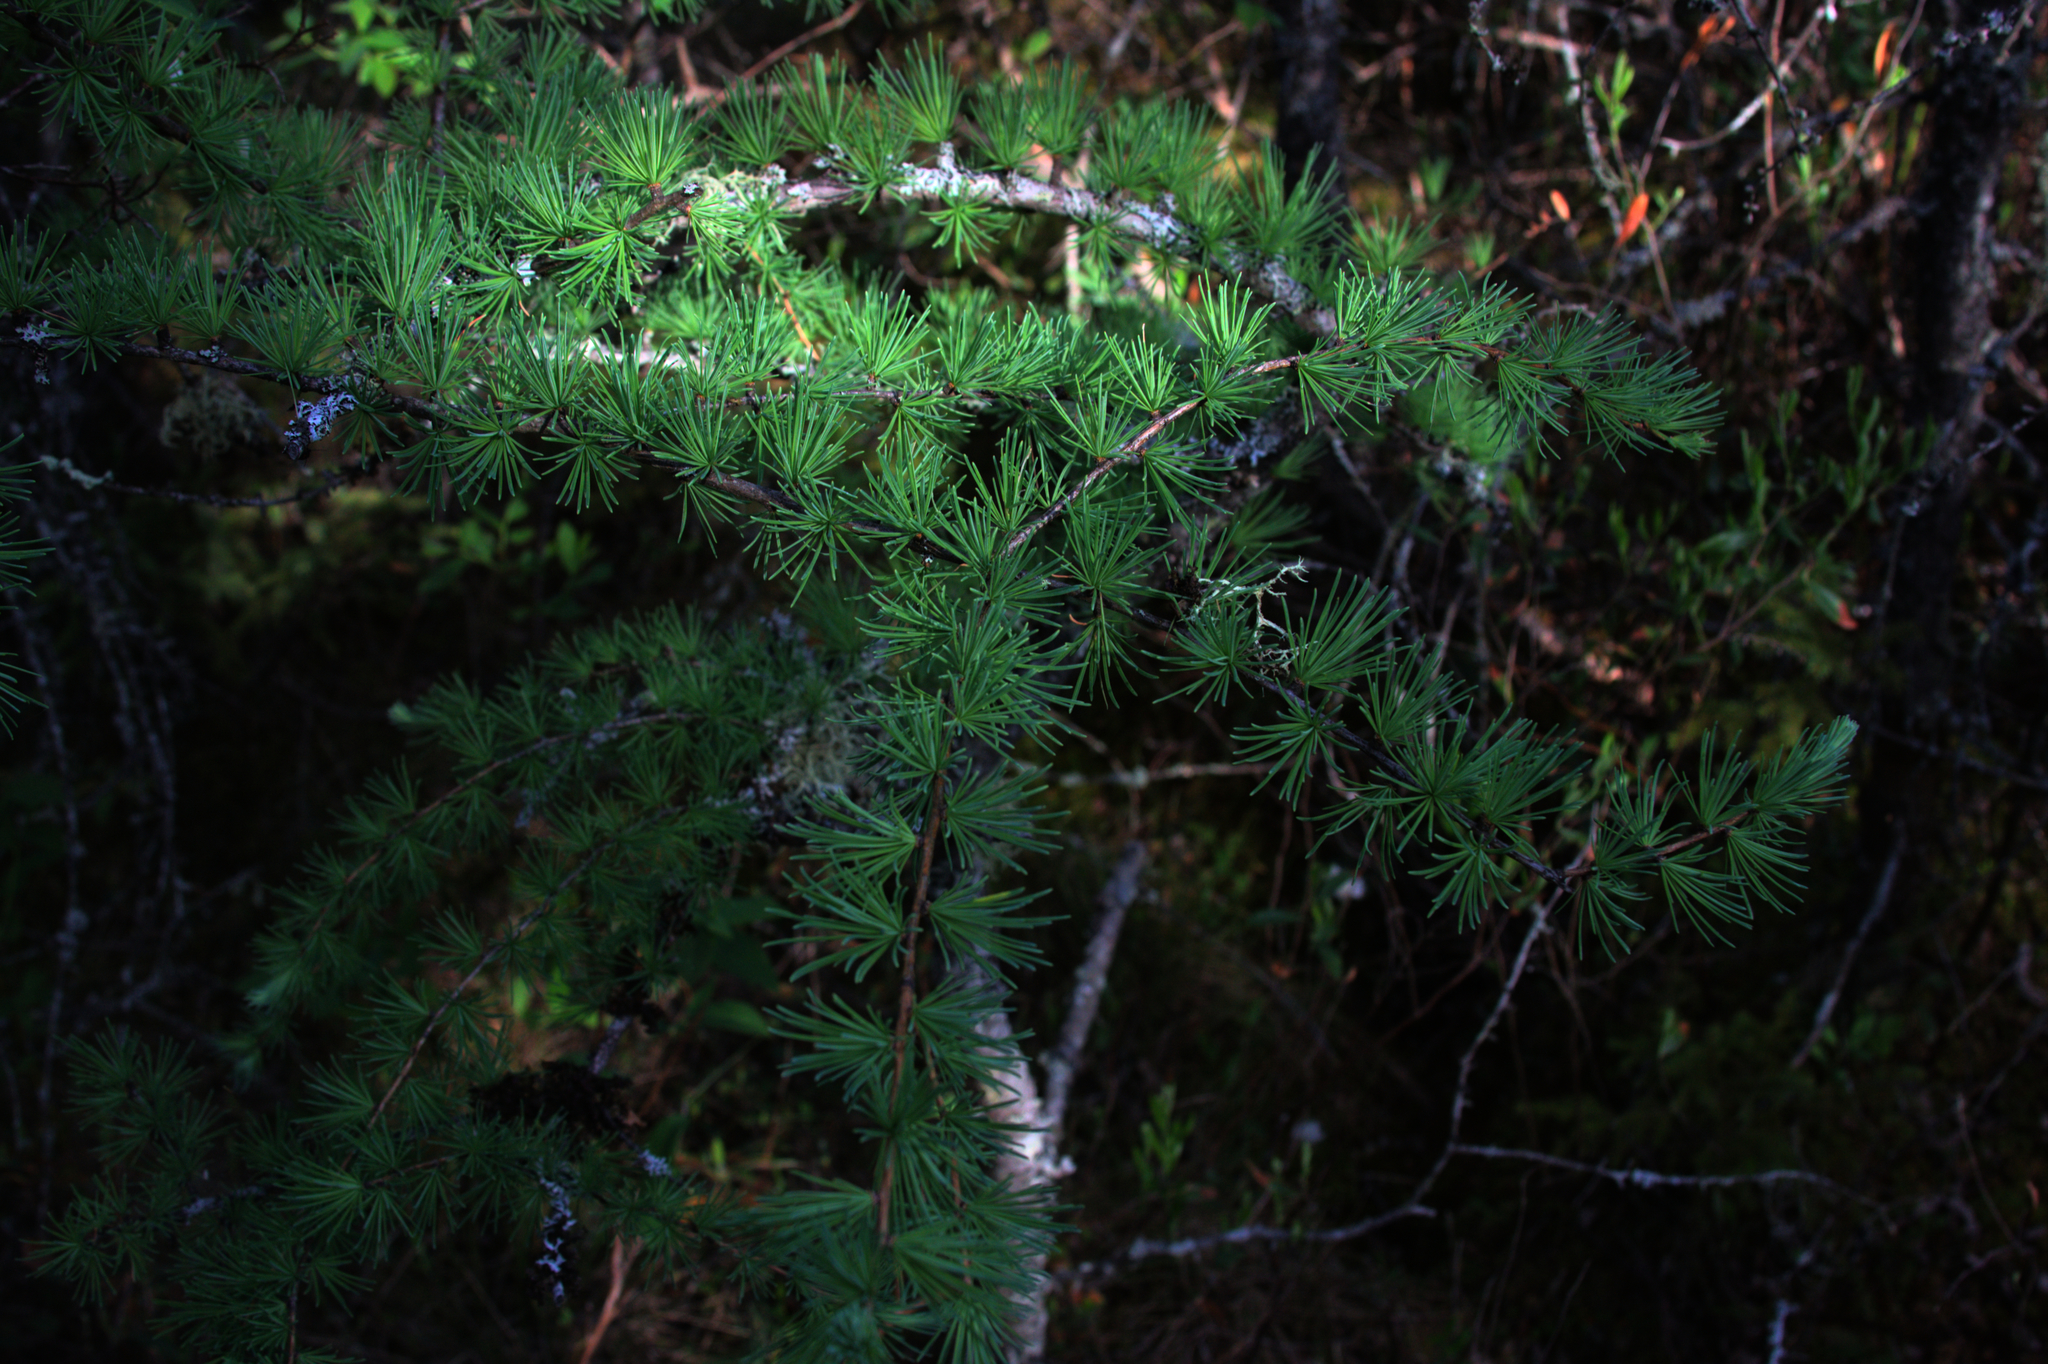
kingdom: Plantae
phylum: Tracheophyta
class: Pinopsida
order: Pinales
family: Pinaceae
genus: Larix
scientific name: Larix laricina
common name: American larch
